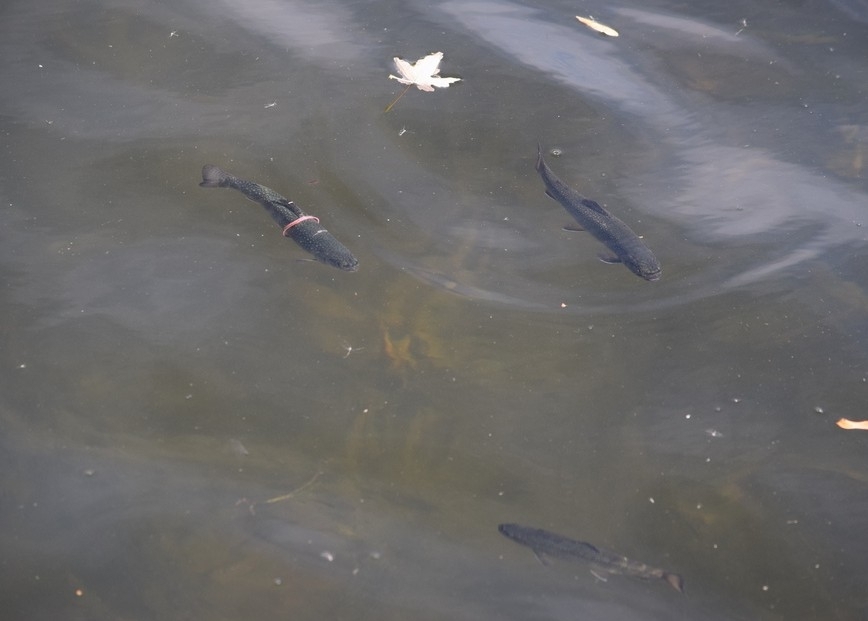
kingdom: Animalia
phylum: Chordata
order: Salmoniformes
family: Salmonidae
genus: Salvelinus
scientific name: Salvelinus fontinalis
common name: Brook trout
